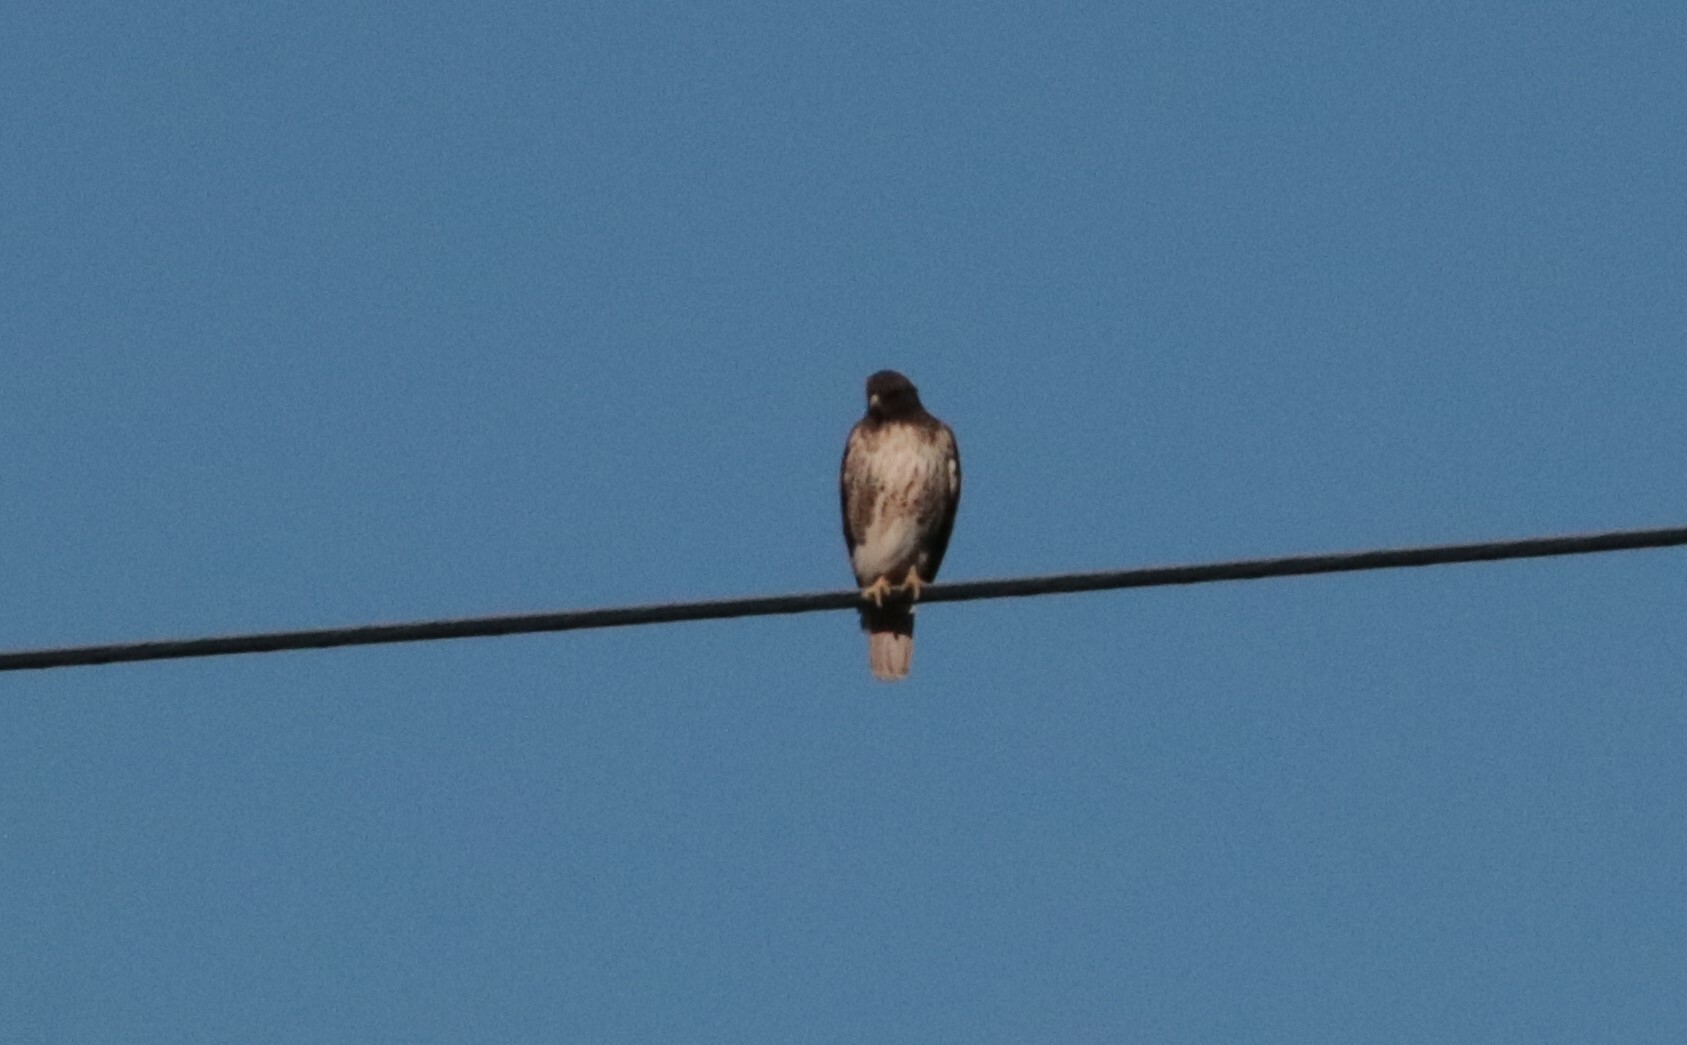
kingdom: Animalia
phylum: Chordata
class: Aves
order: Accipitriformes
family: Accipitridae
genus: Buteo
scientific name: Buteo jamaicensis
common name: Red-tailed hawk
